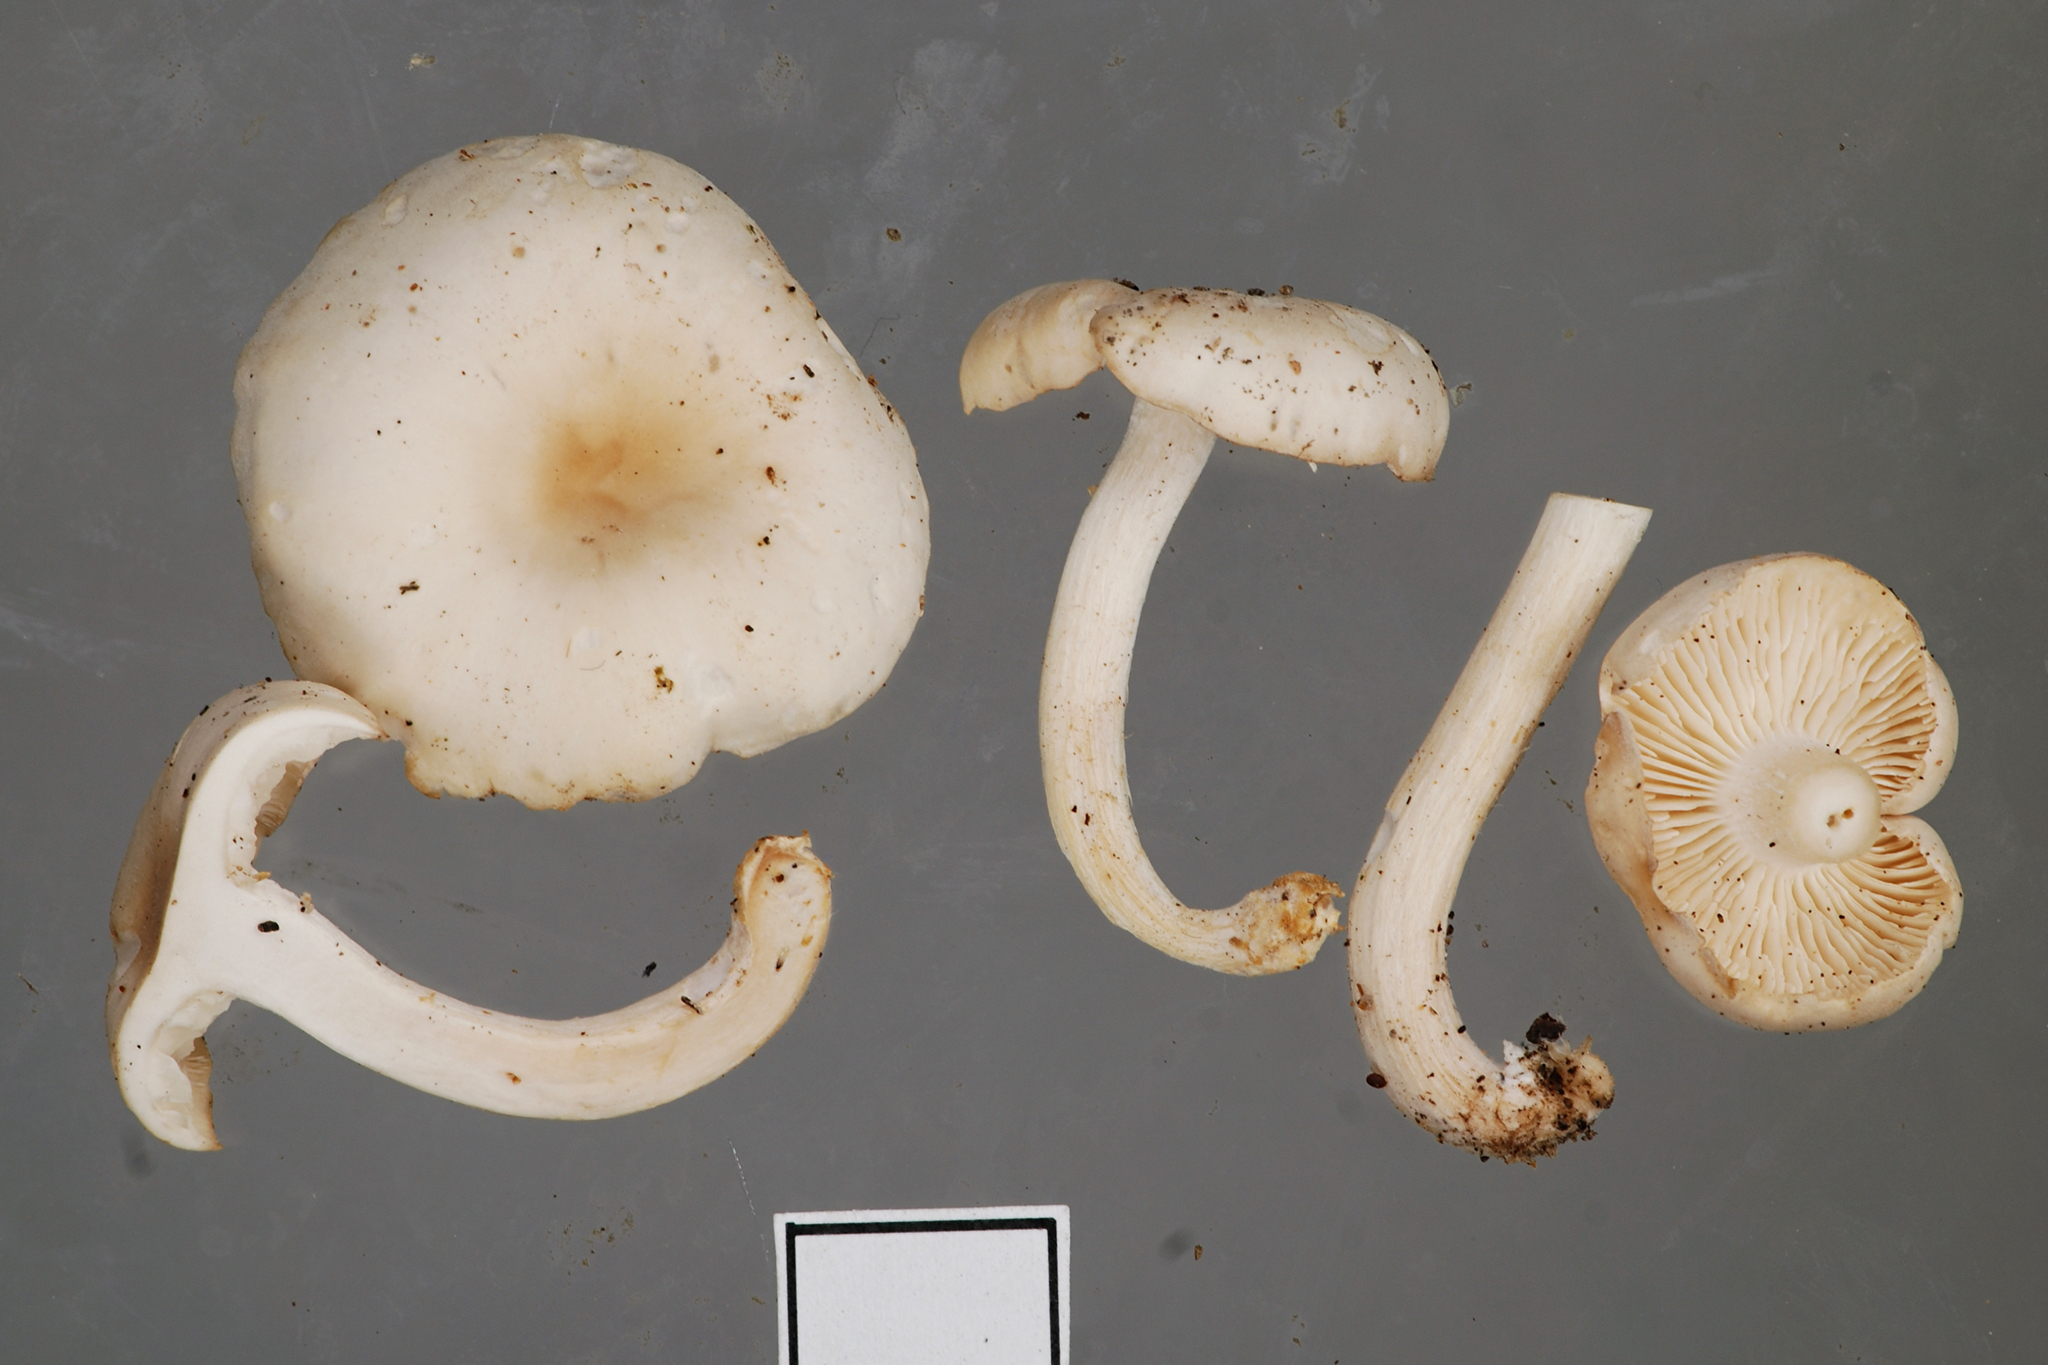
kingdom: Fungi
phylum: Basidiomycota
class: Agaricomycetes
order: Agaricales
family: Tricholomataceae
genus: Clitocybe
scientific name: Clitocybe metachroa
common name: Twotone funnel
